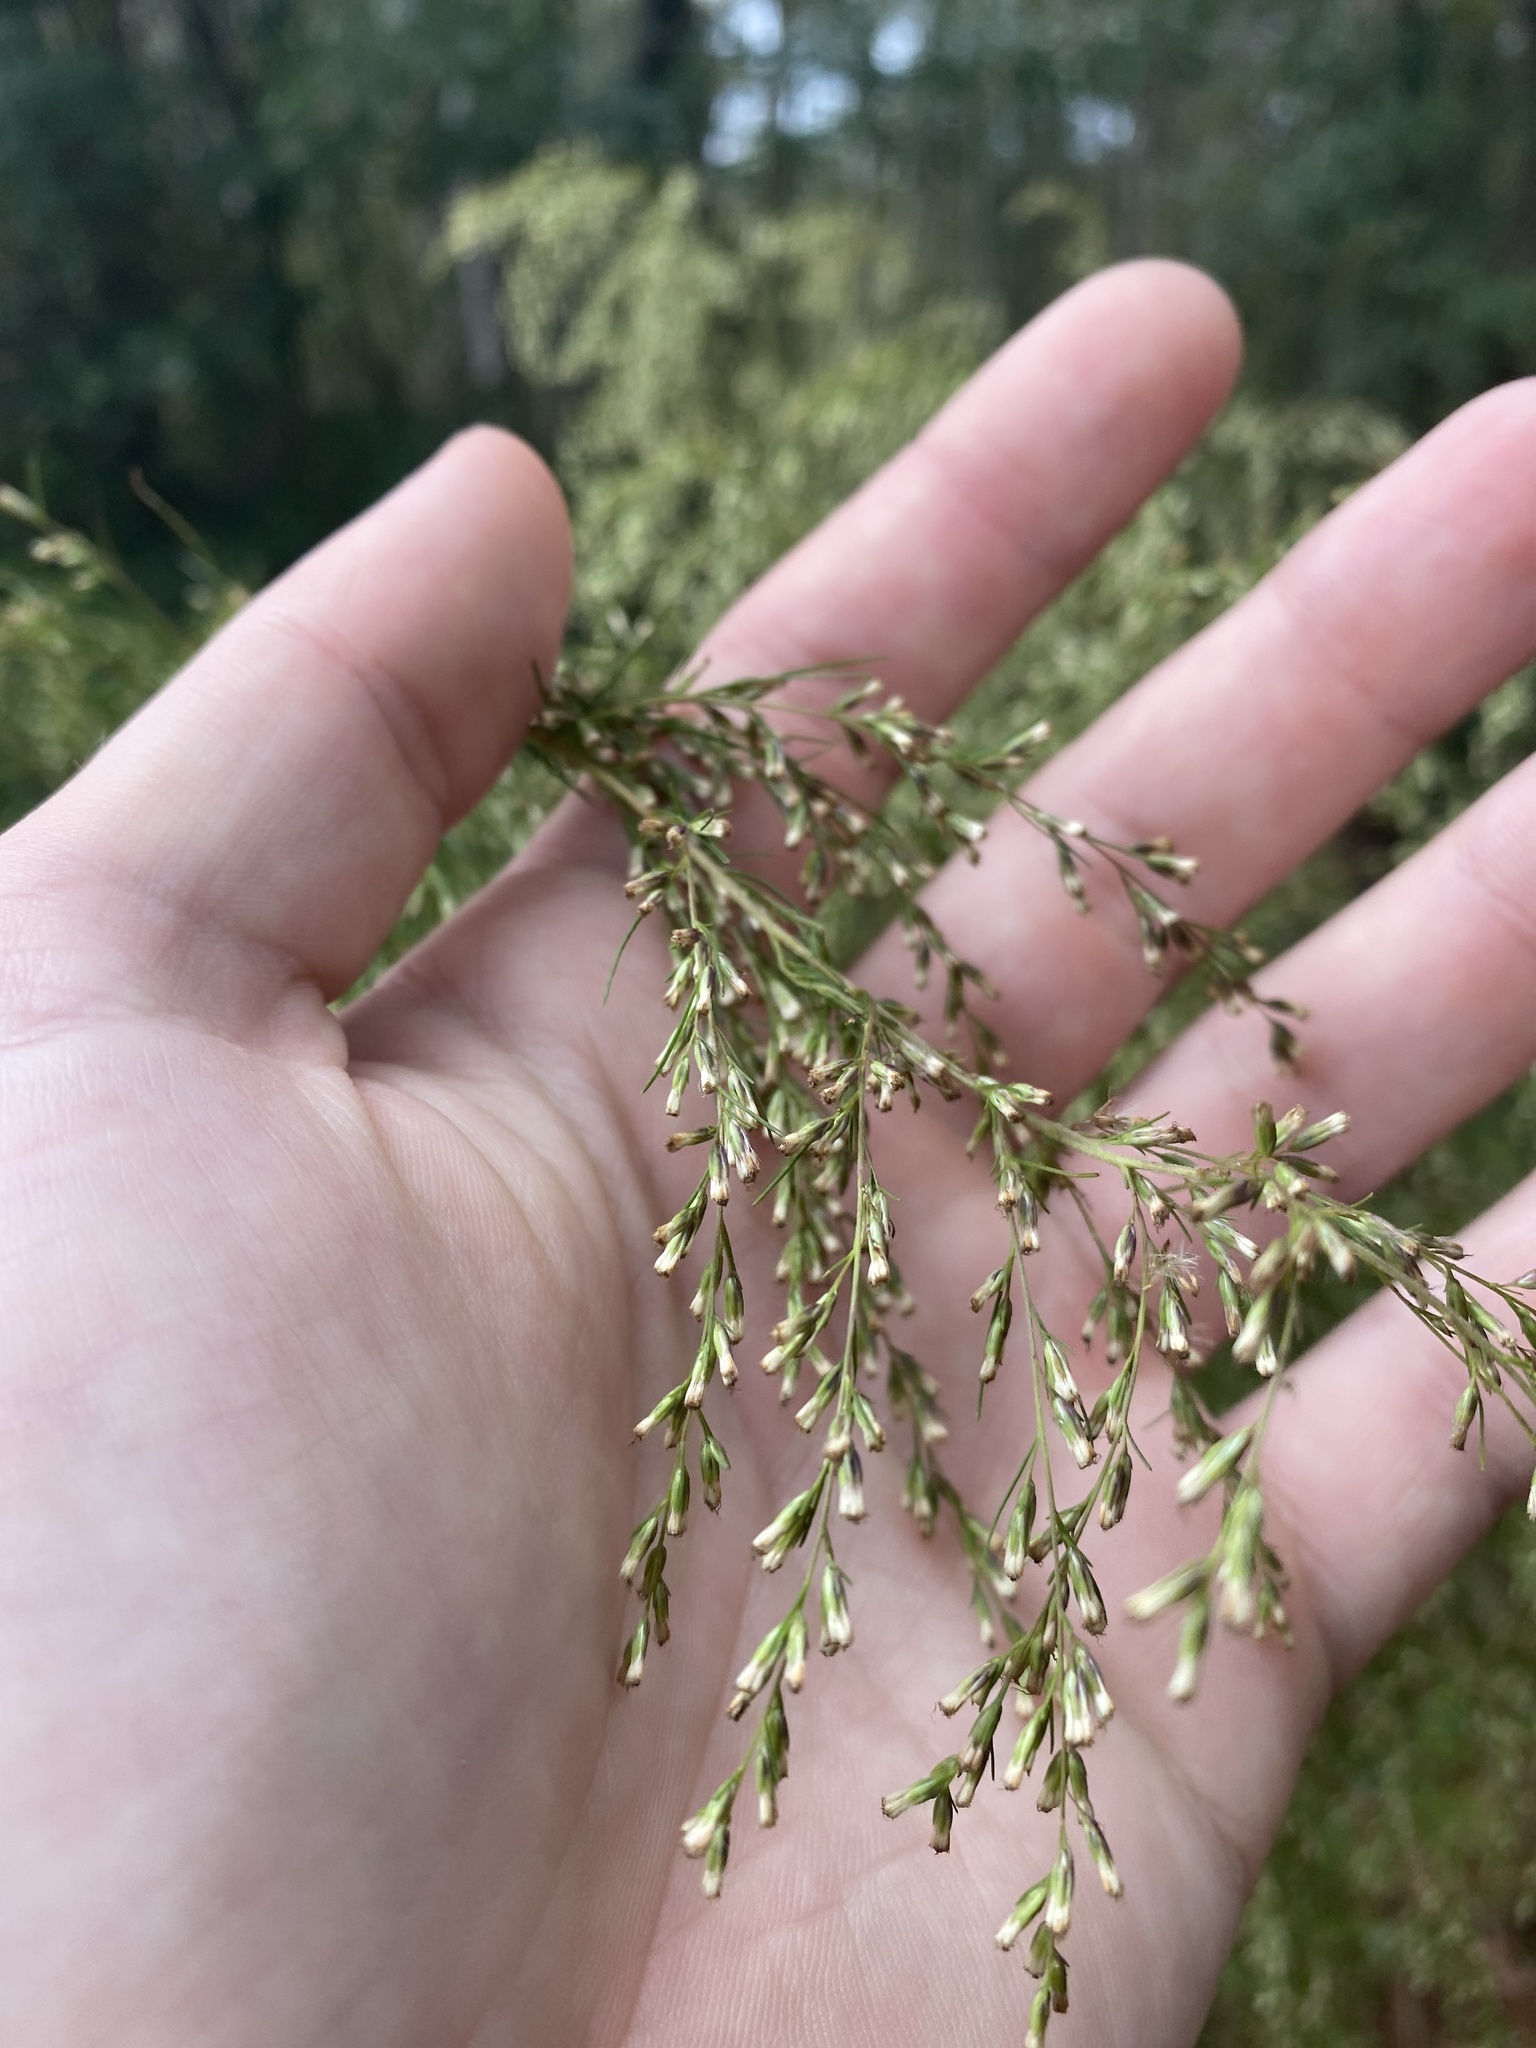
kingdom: Plantae
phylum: Tracheophyta
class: Magnoliopsida
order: Asterales
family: Asteraceae
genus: Eupatorium
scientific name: Eupatorium capillifolium
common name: Dog-fennel
